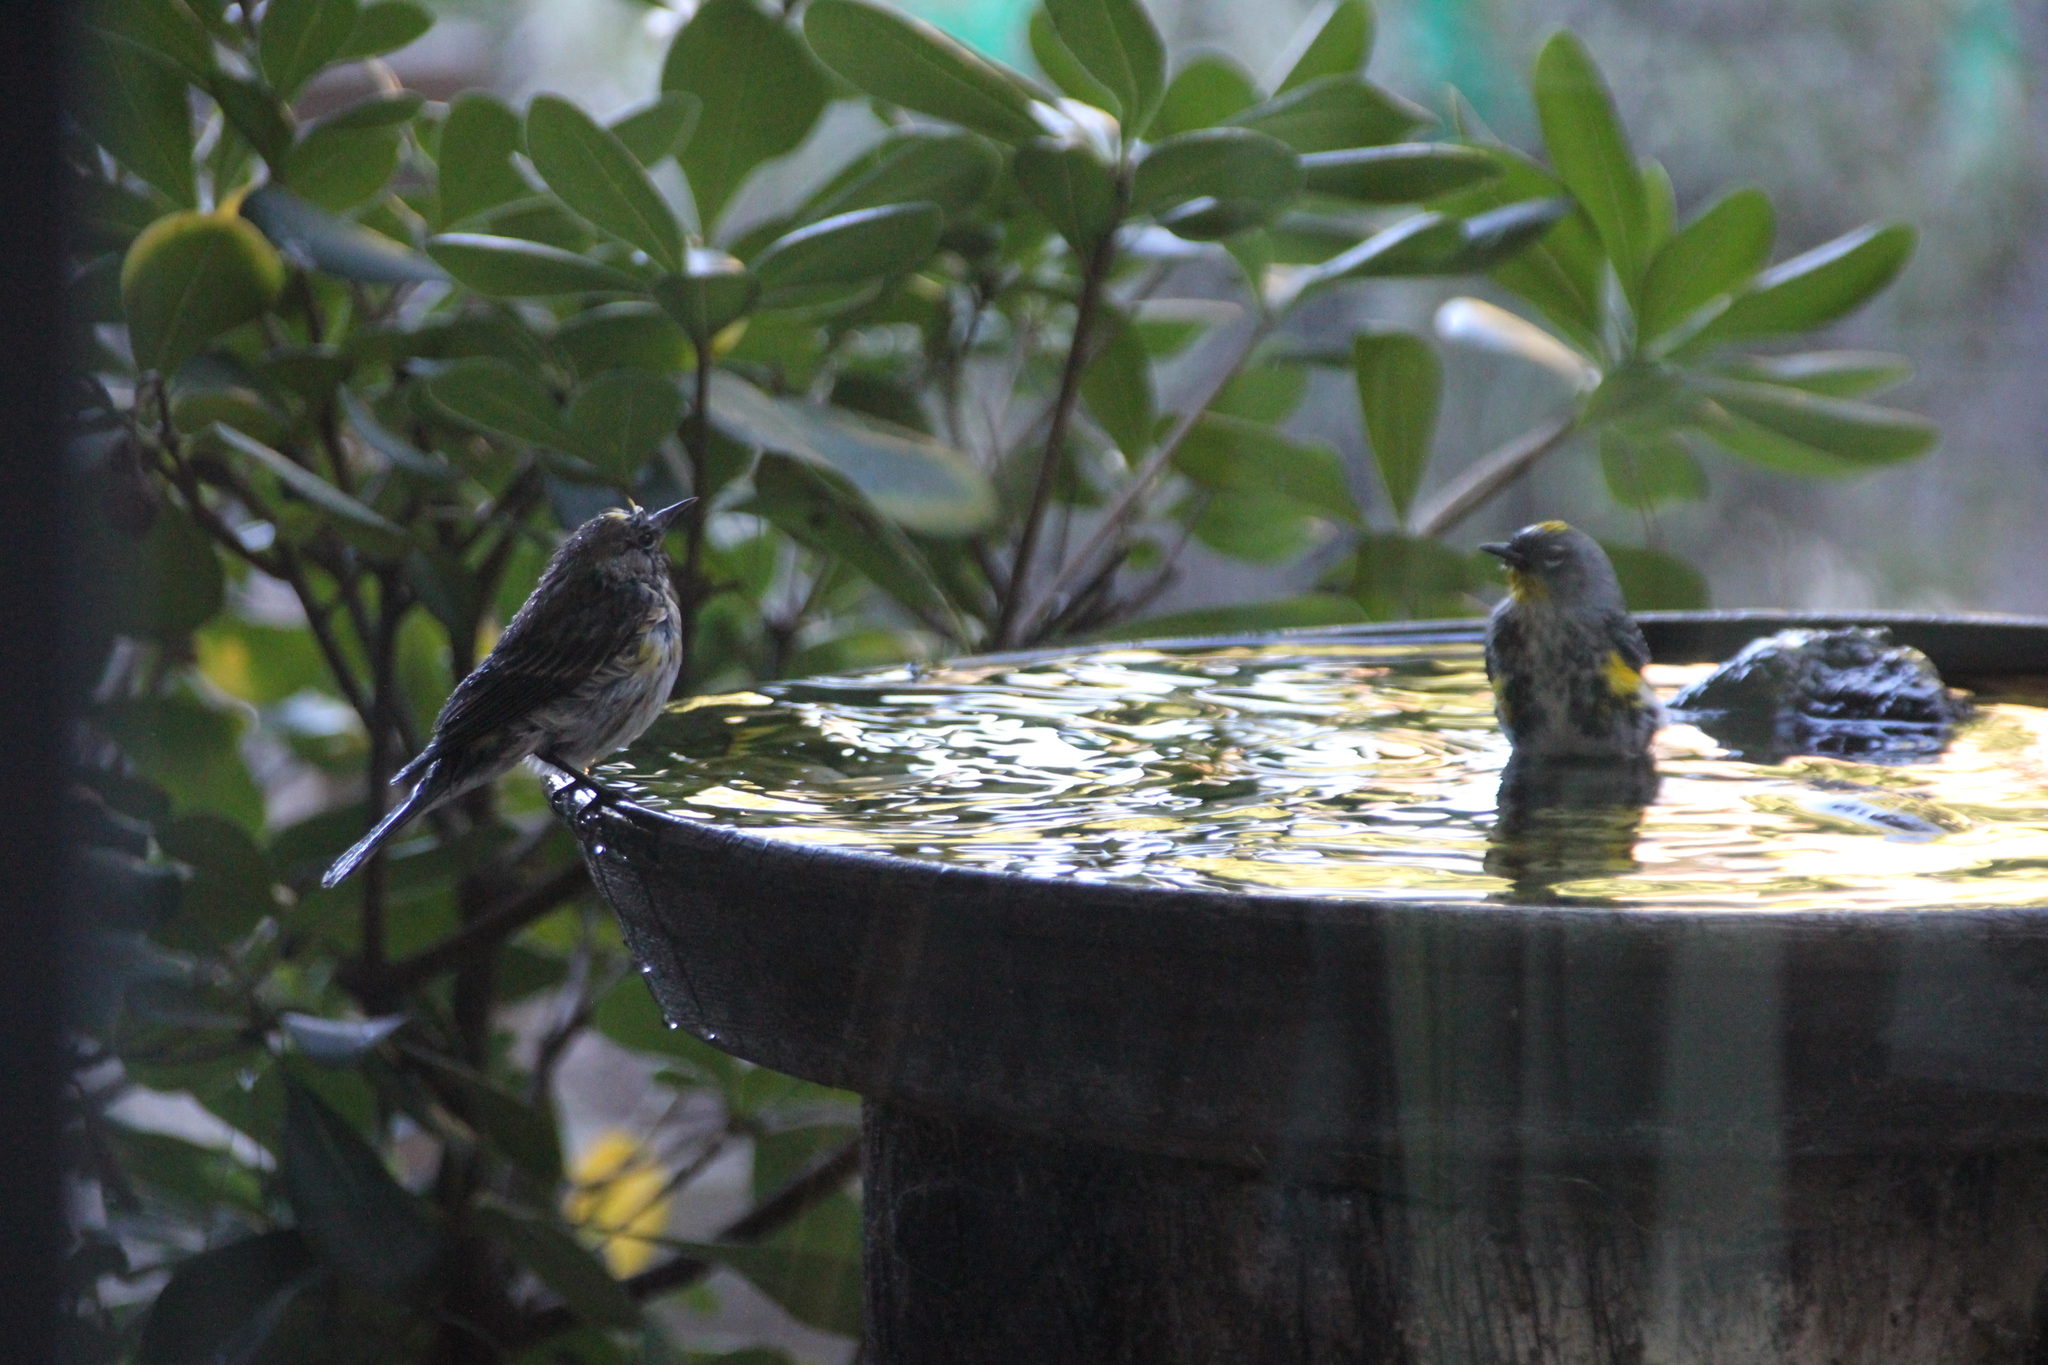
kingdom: Animalia
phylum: Chordata
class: Aves
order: Passeriformes
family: Parulidae
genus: Setophaga
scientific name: Setophaga coronata
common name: Myrtle warbler
